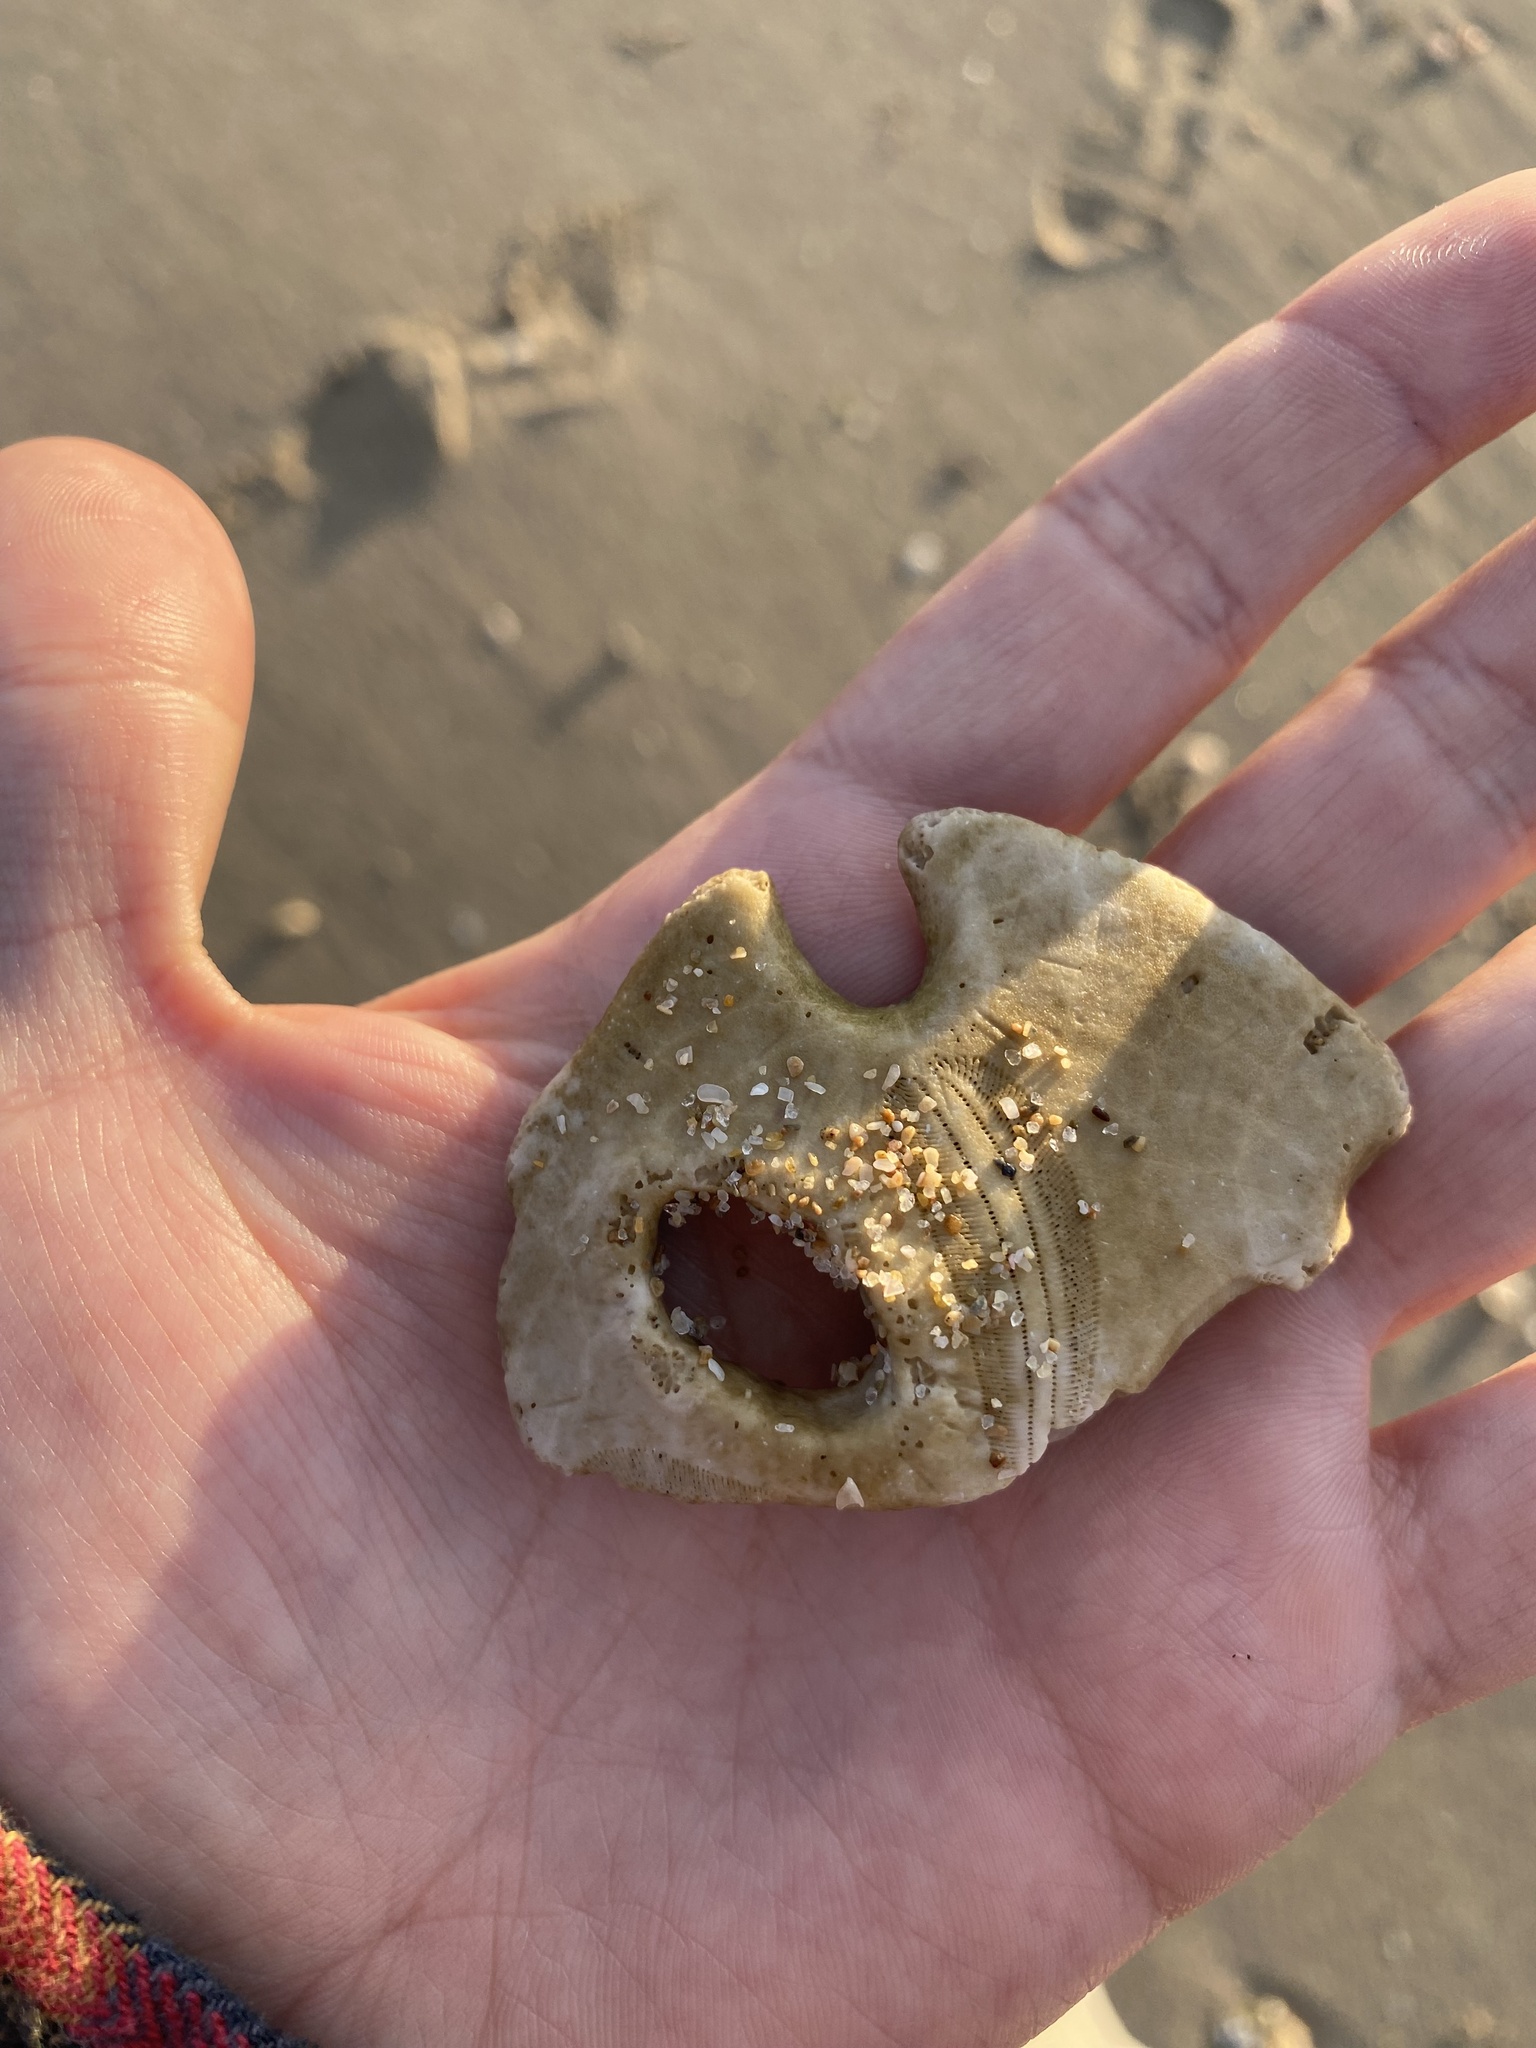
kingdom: Animalia
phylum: Echinodermata
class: Echinoidea
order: Echinolampadacea
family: Mellitidae
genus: Encope
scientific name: Encope grandis
